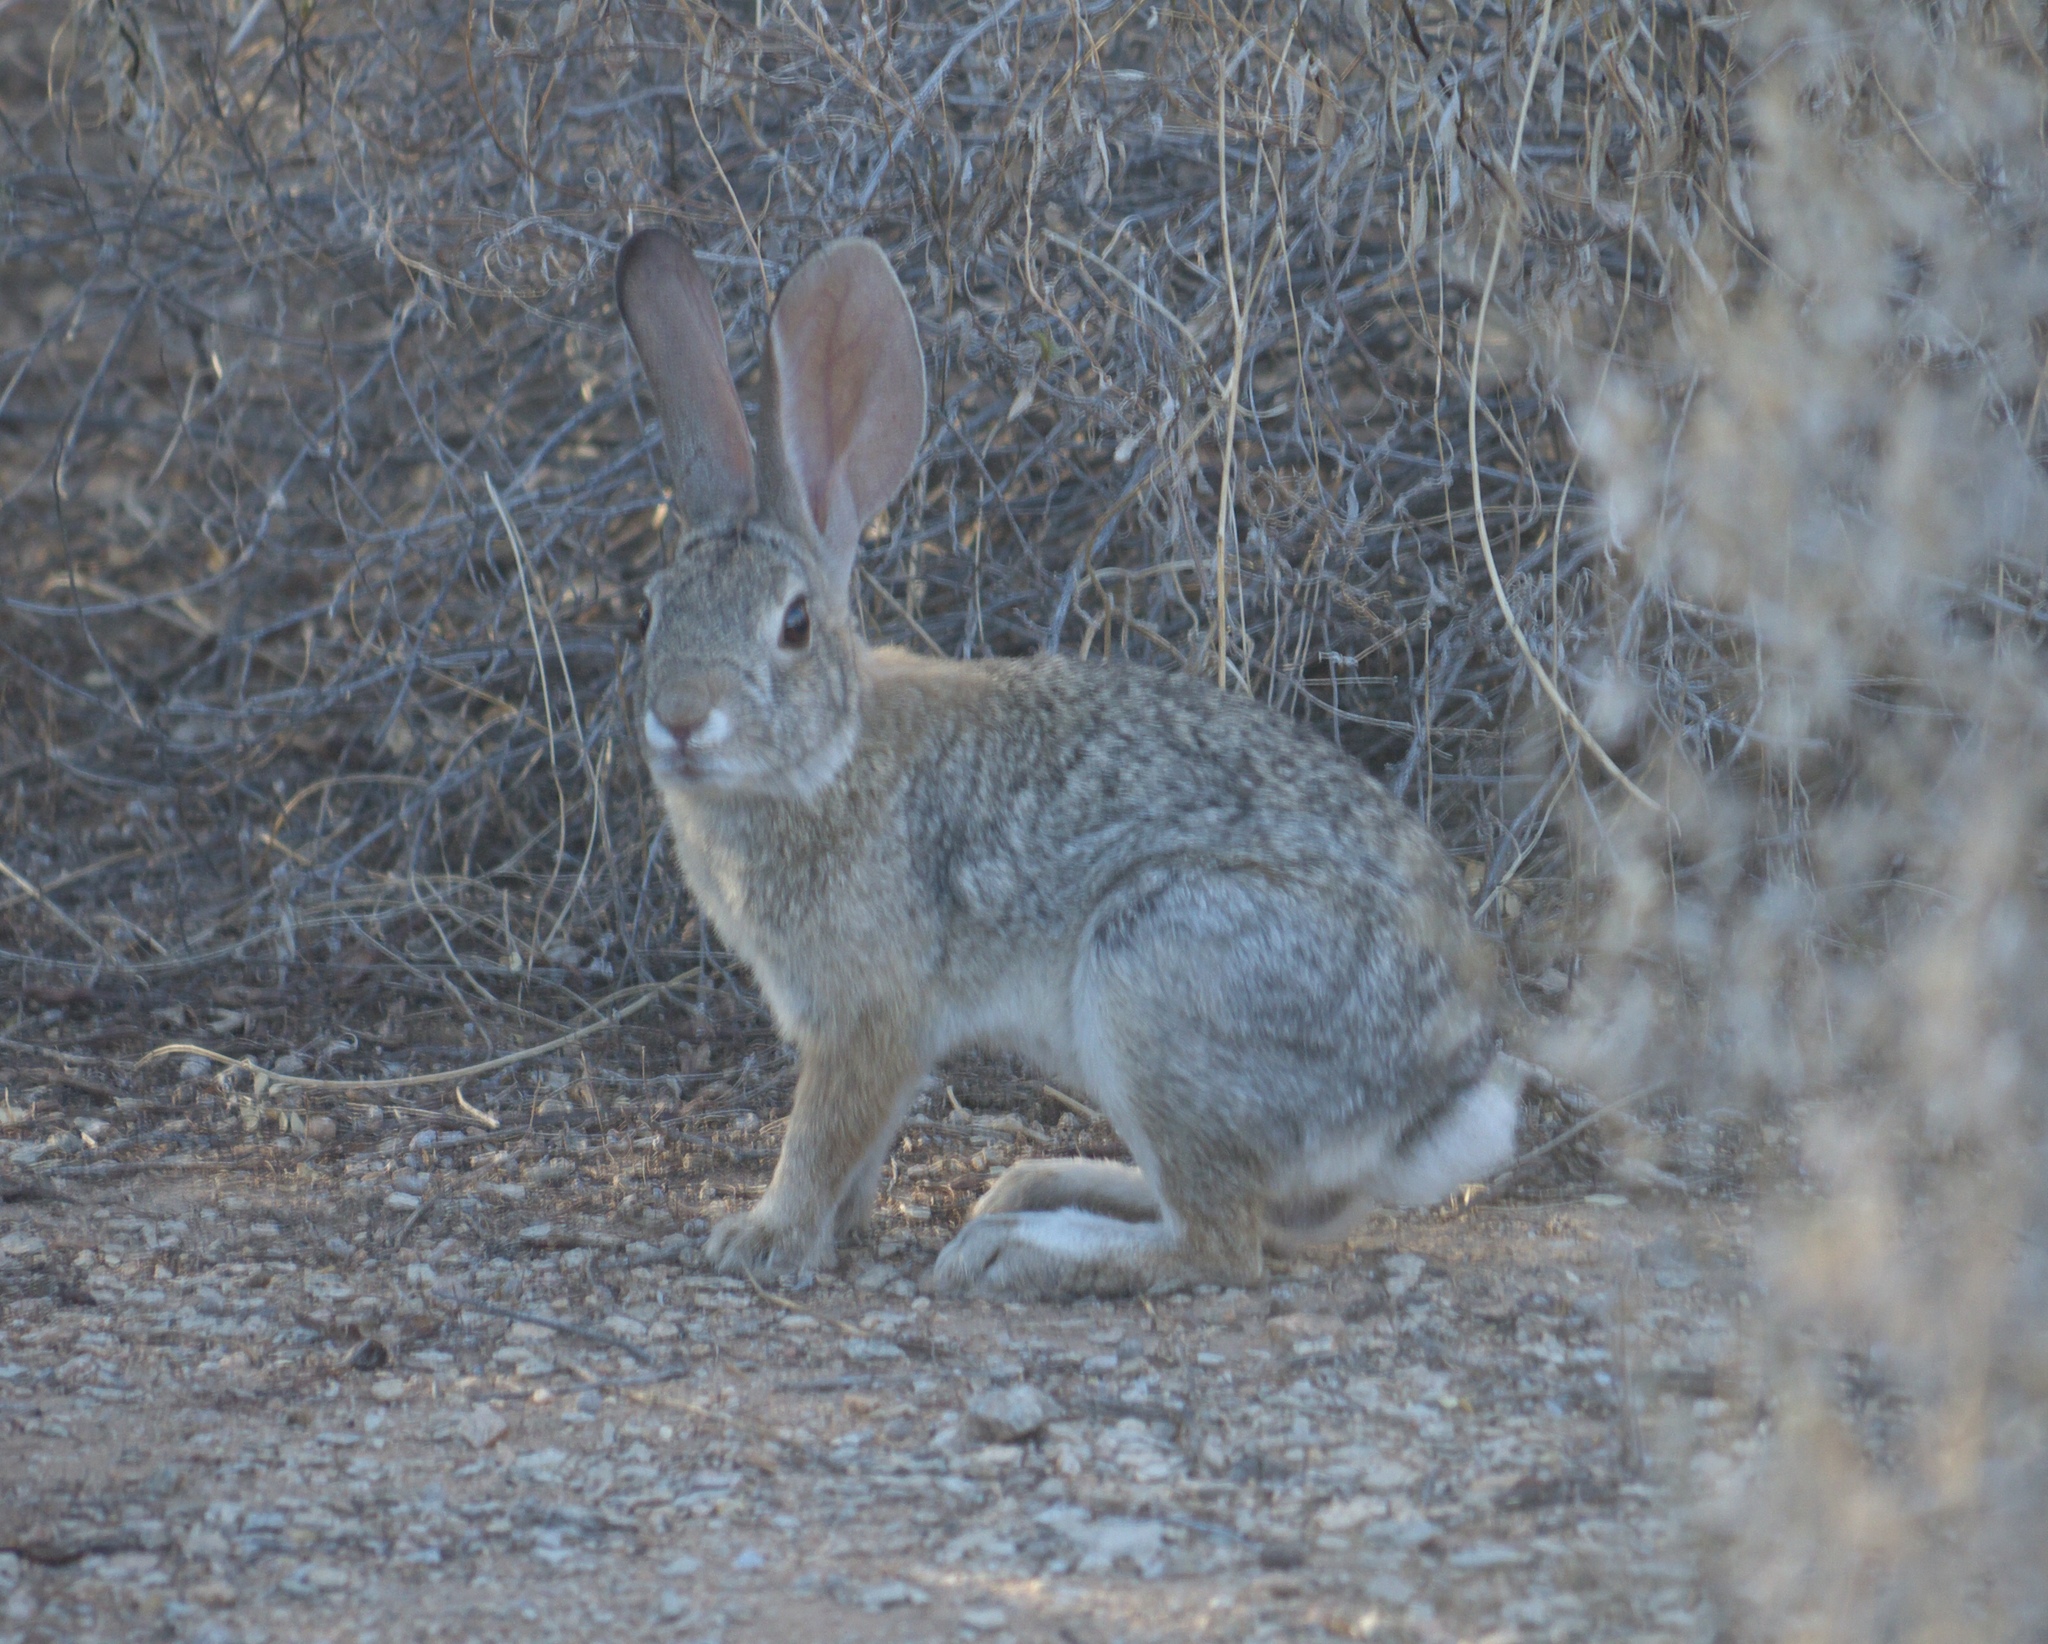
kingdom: Animalia
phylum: Chordata
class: Mammalia
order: Lagomorpha
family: Leporidae
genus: Sylvilagus
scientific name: Sylvilagus audubonii
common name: Desert cottontail
